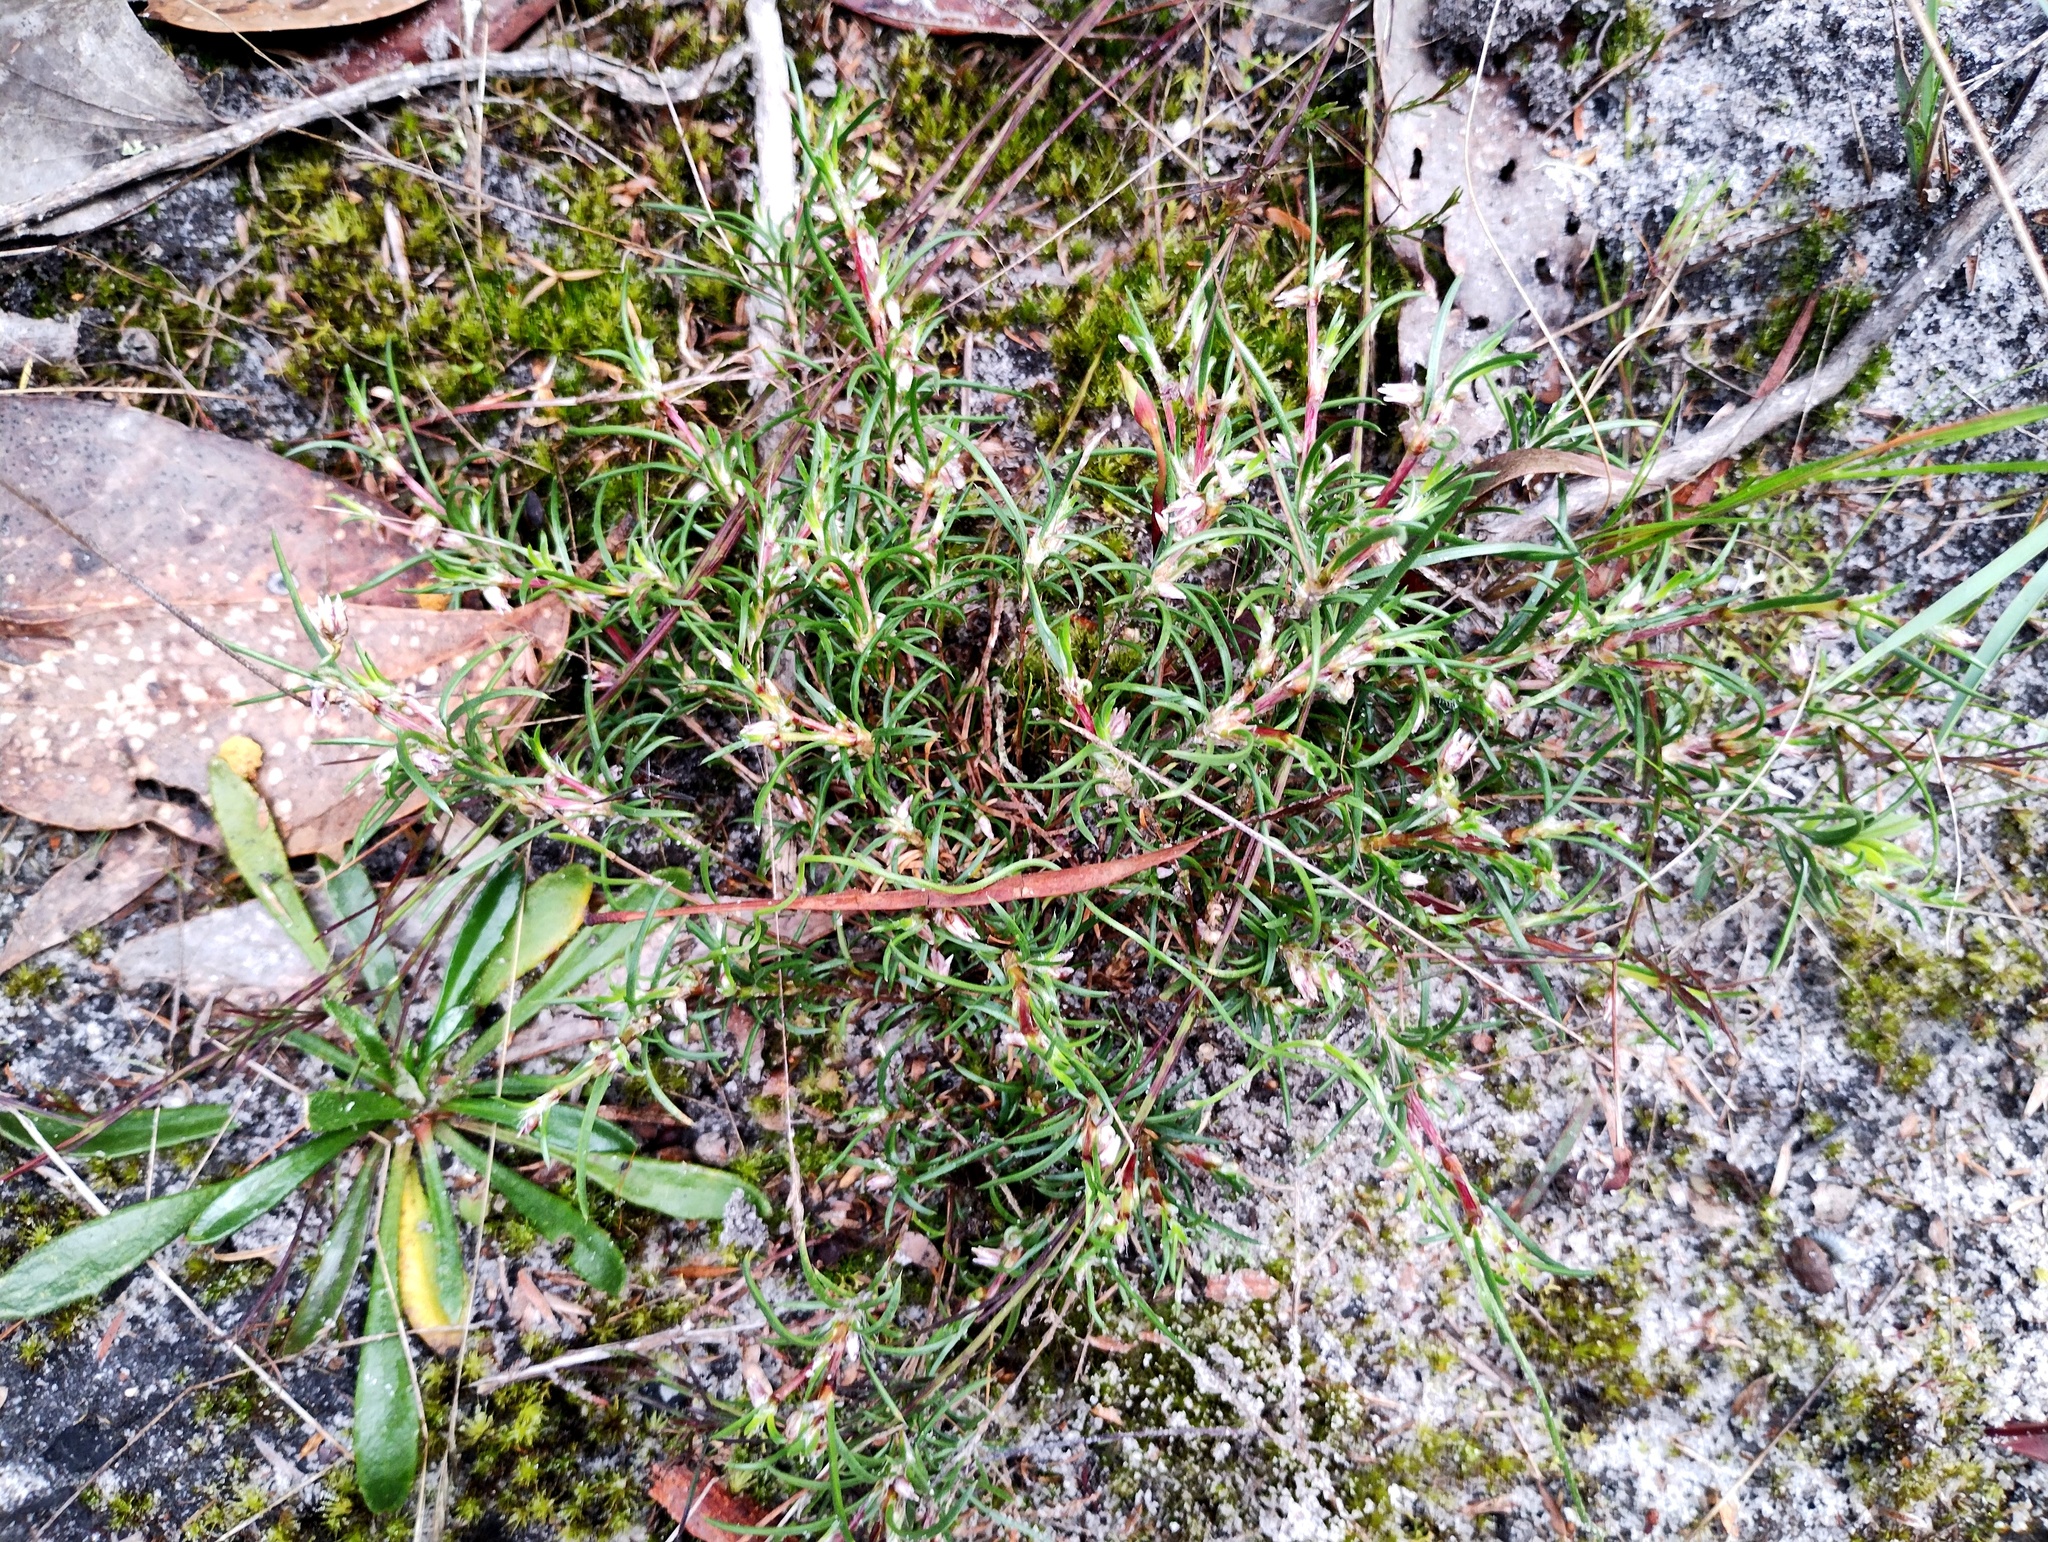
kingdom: Plantae
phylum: Tracheophyta
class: Liliopsida
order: Asparagales
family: Asparagaceae
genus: Laxmannia
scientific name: Laxmannia orientalis
